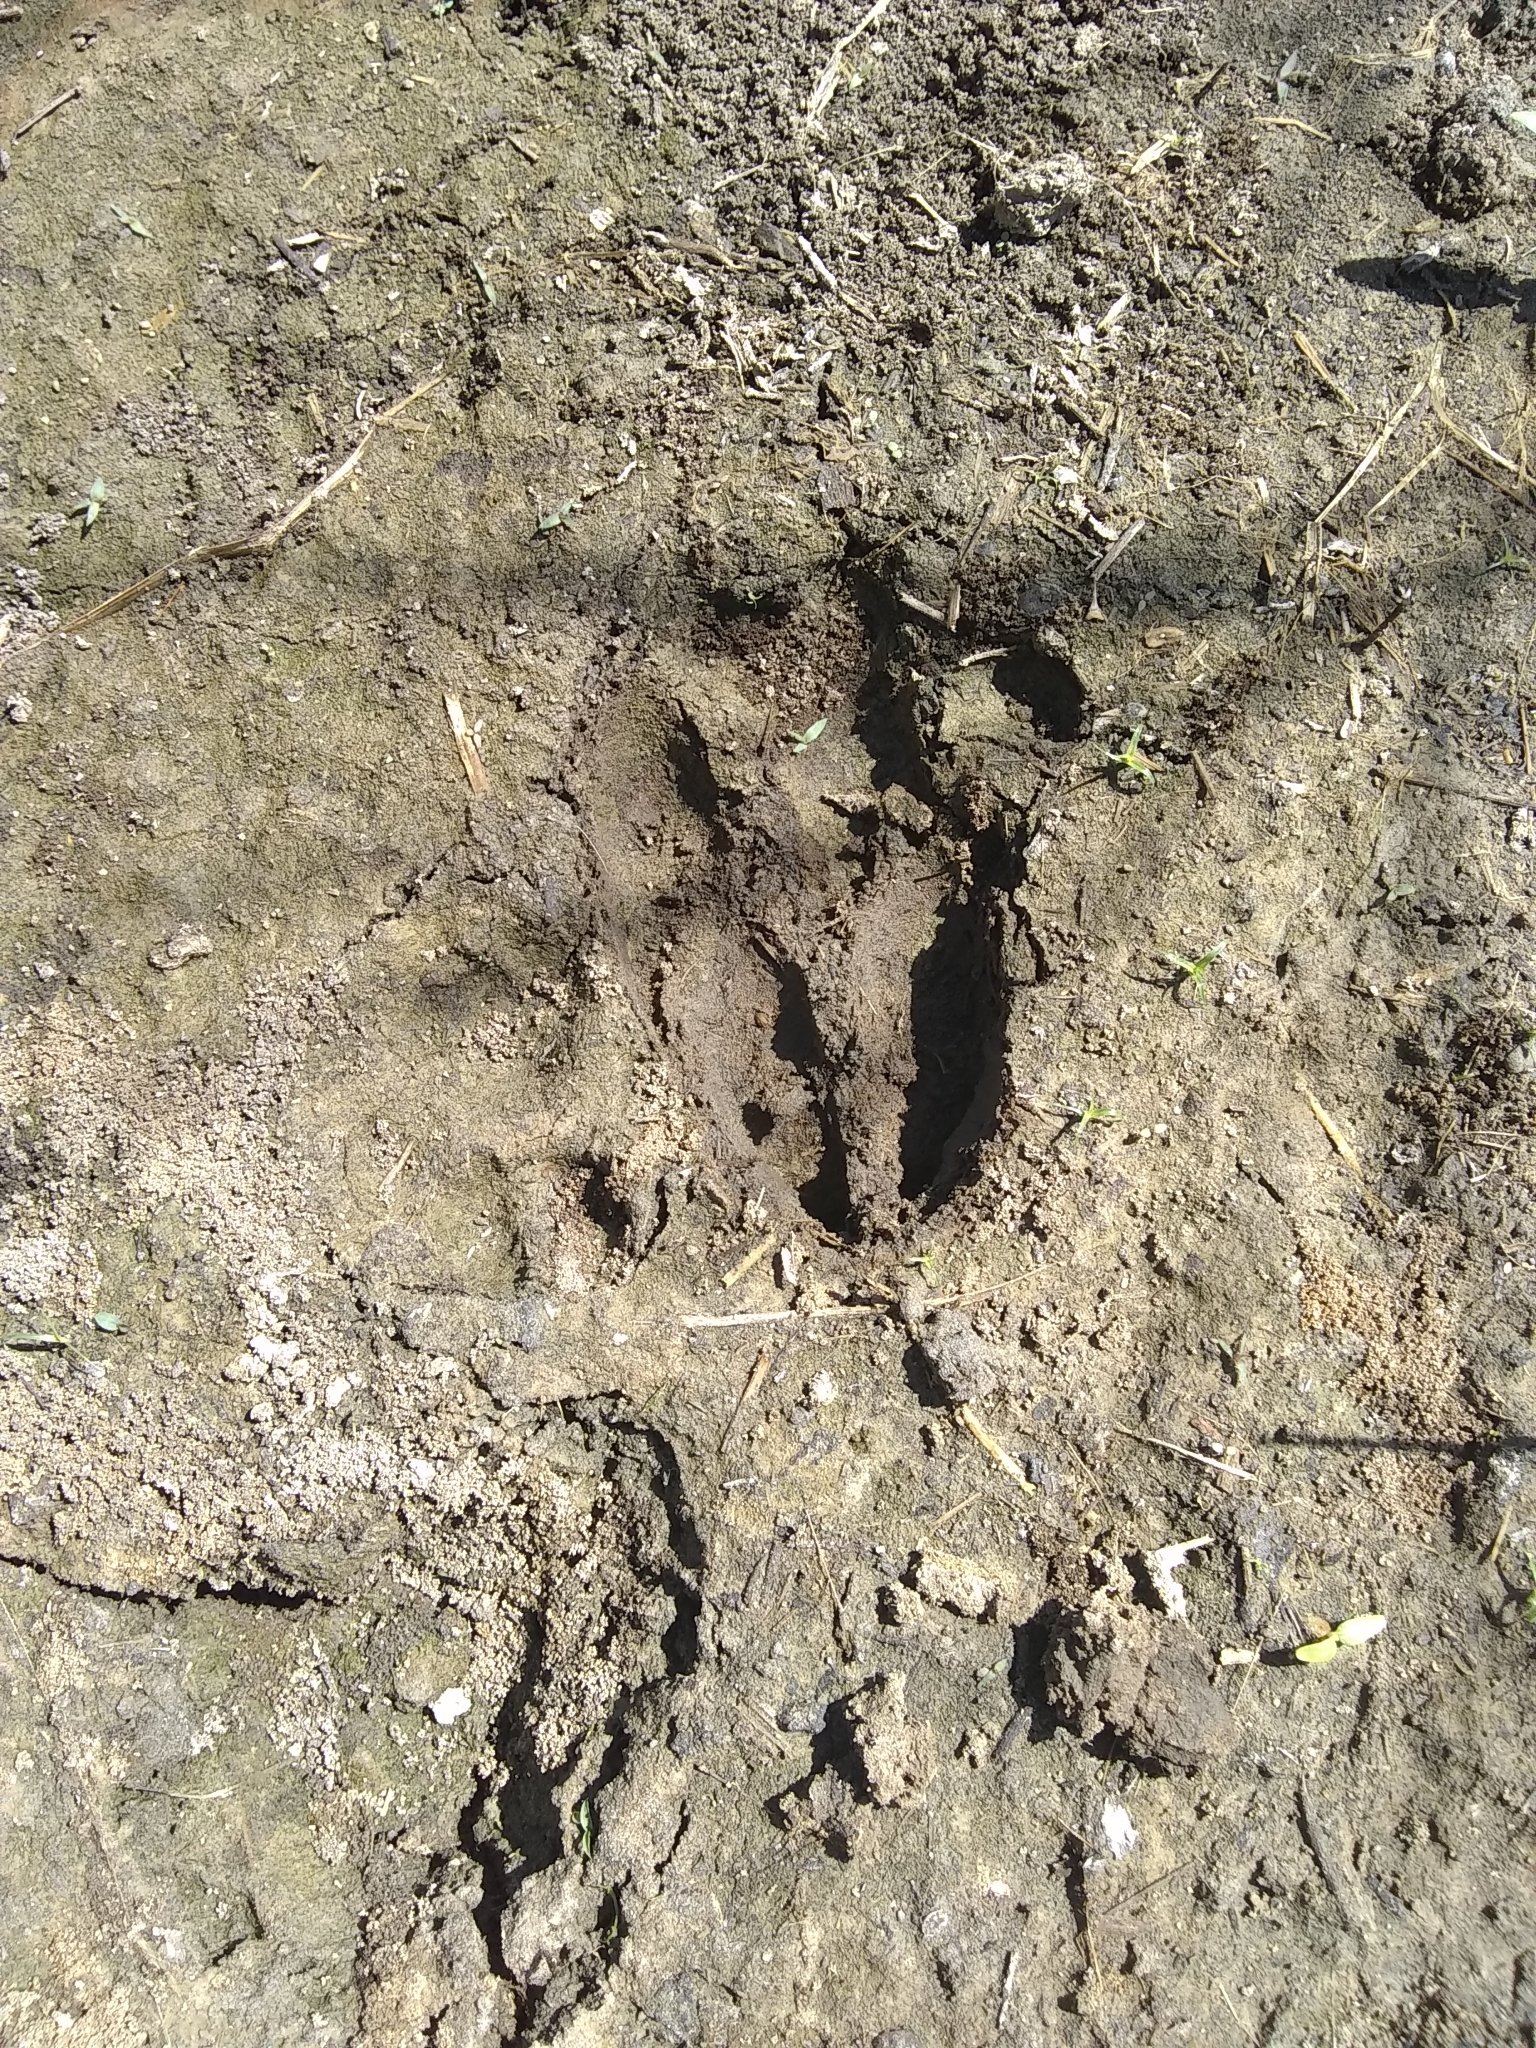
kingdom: Animalia
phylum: Chordata
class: Mammalia
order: Artiodactyla
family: Cervidae
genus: Odocoileus
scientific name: Odocoileus virginianus
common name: White-tailed deer
